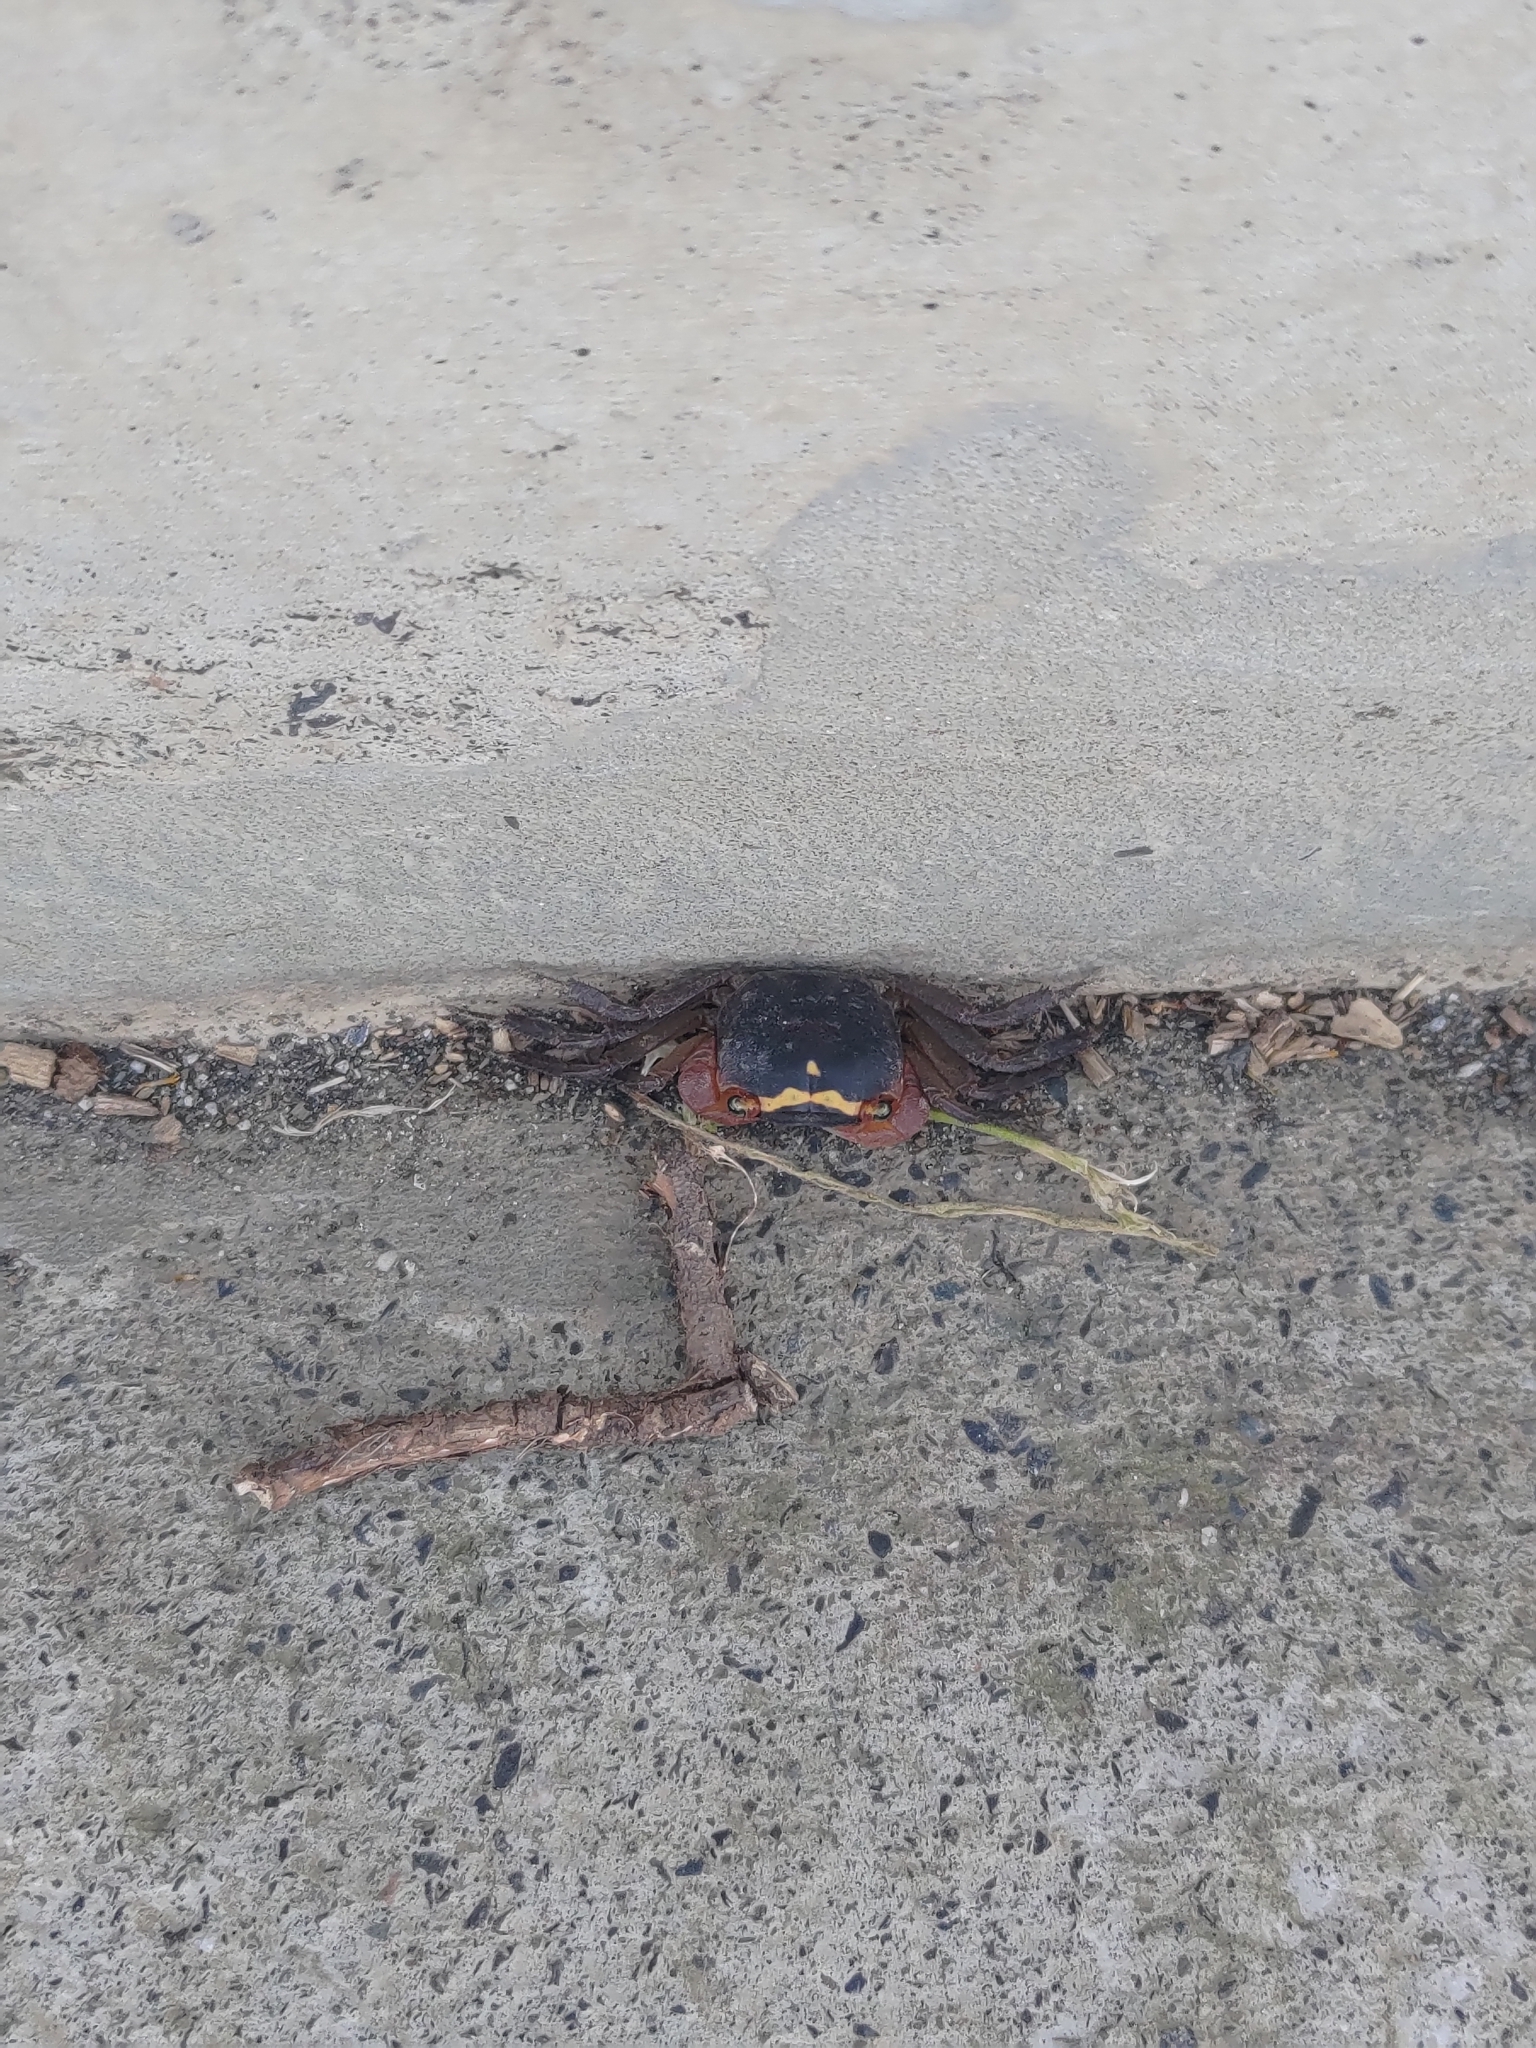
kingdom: Animalia
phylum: Arthropoda
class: Malacostraca
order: Decapoda
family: Sesarmidae
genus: Metasesarma
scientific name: Metasesarma aubryi
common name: Apple crab
